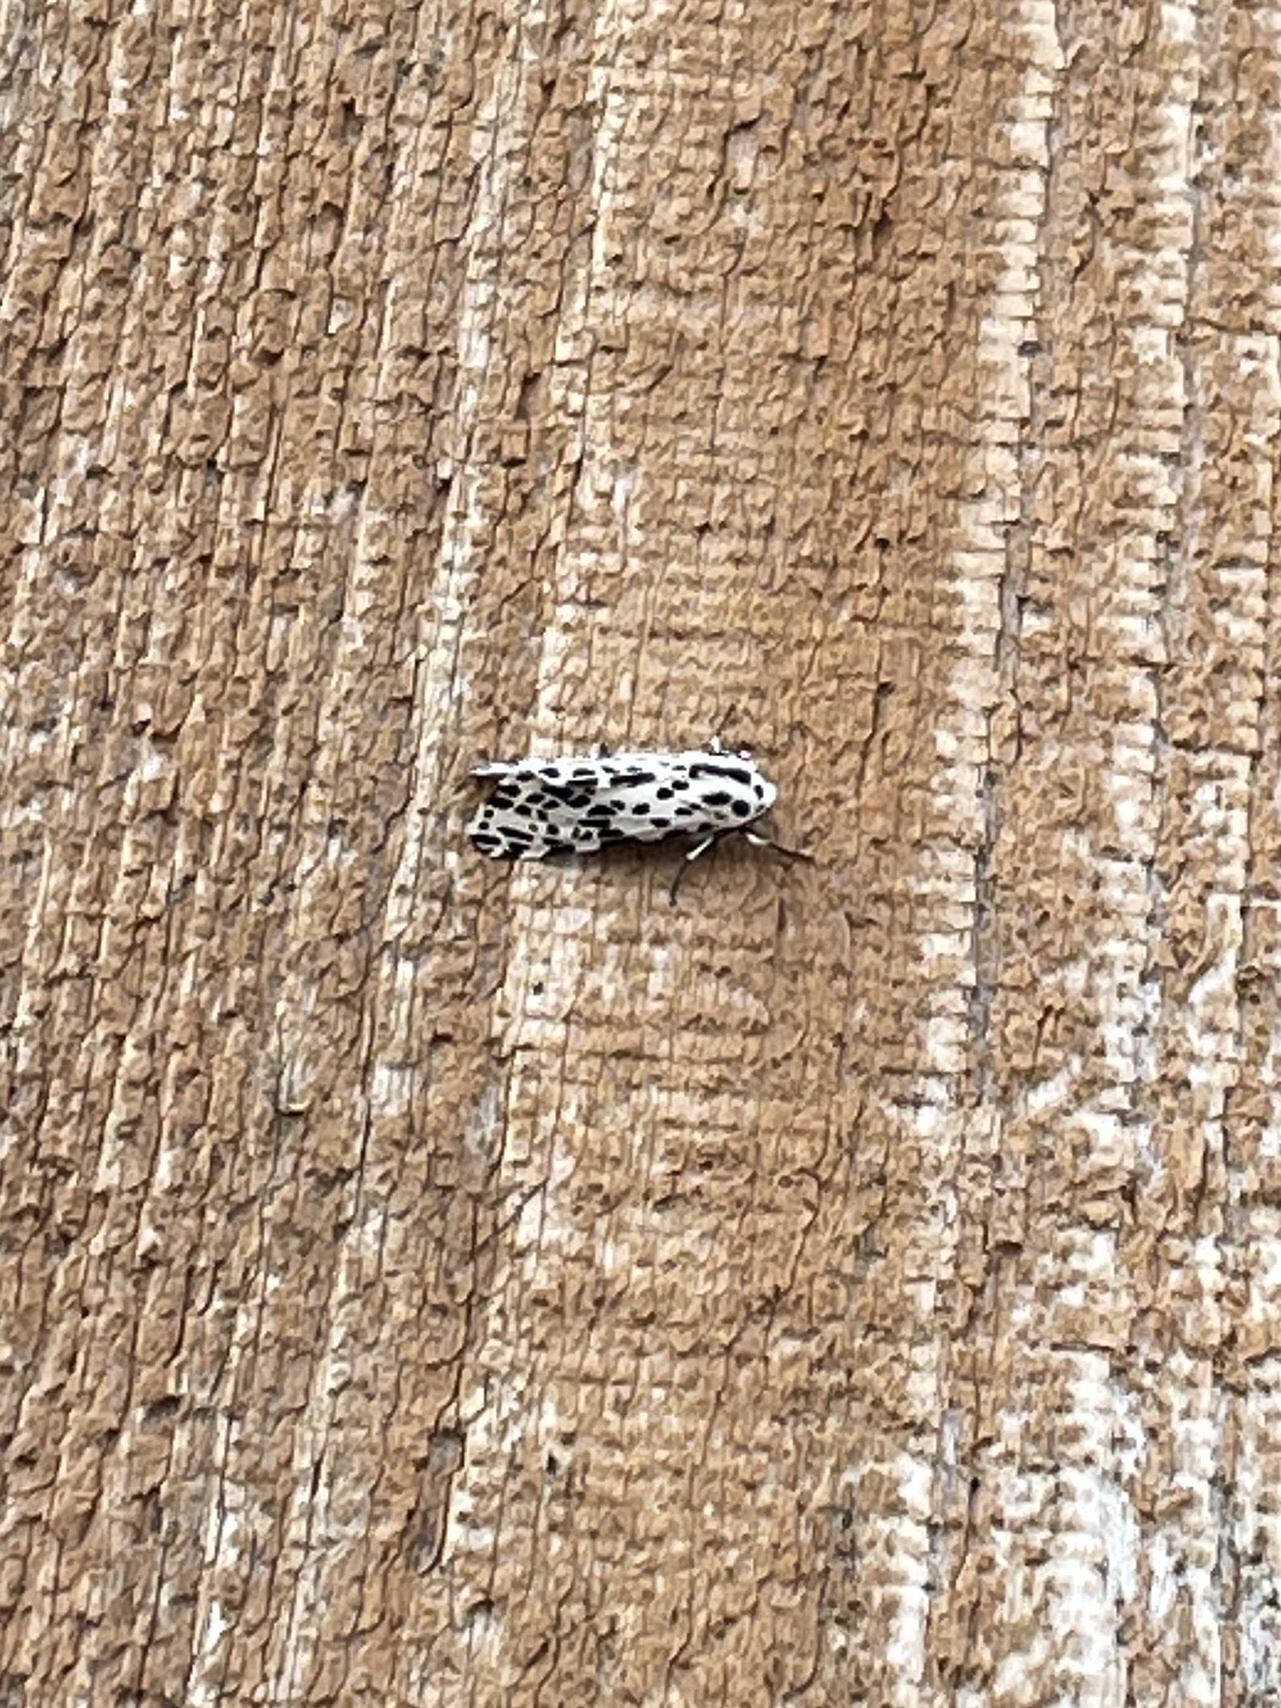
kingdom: Animalia
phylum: Arthropoda
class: Insecta
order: Lepidoptera
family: Erebidae
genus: Hypercompe
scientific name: Hypercompe permaculata
